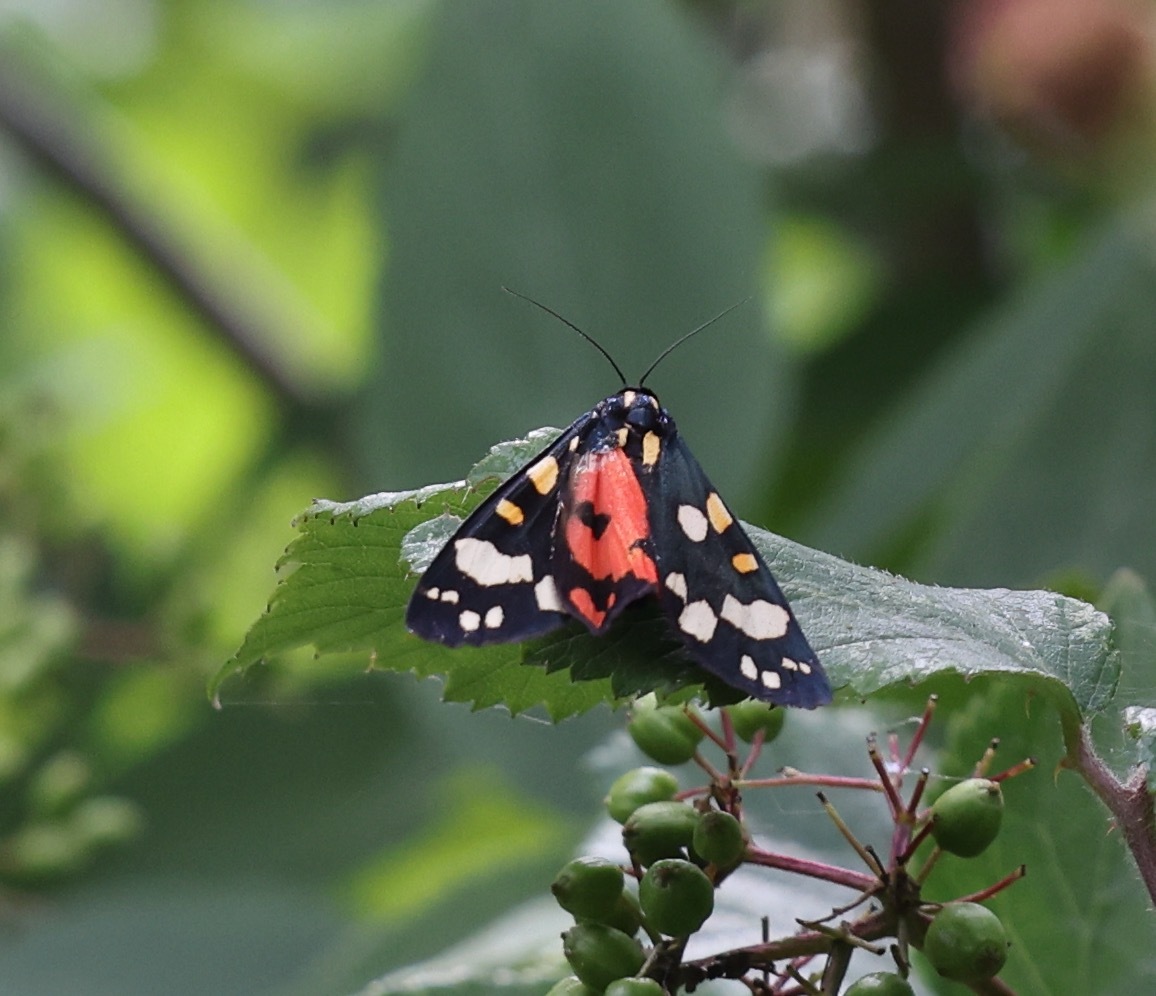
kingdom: Animalia
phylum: Arthropoda
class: Insecta
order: Lepidoptera
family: Erebidae
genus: Callimorpha
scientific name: Callimorpha dominula
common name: Scarlet tiger
